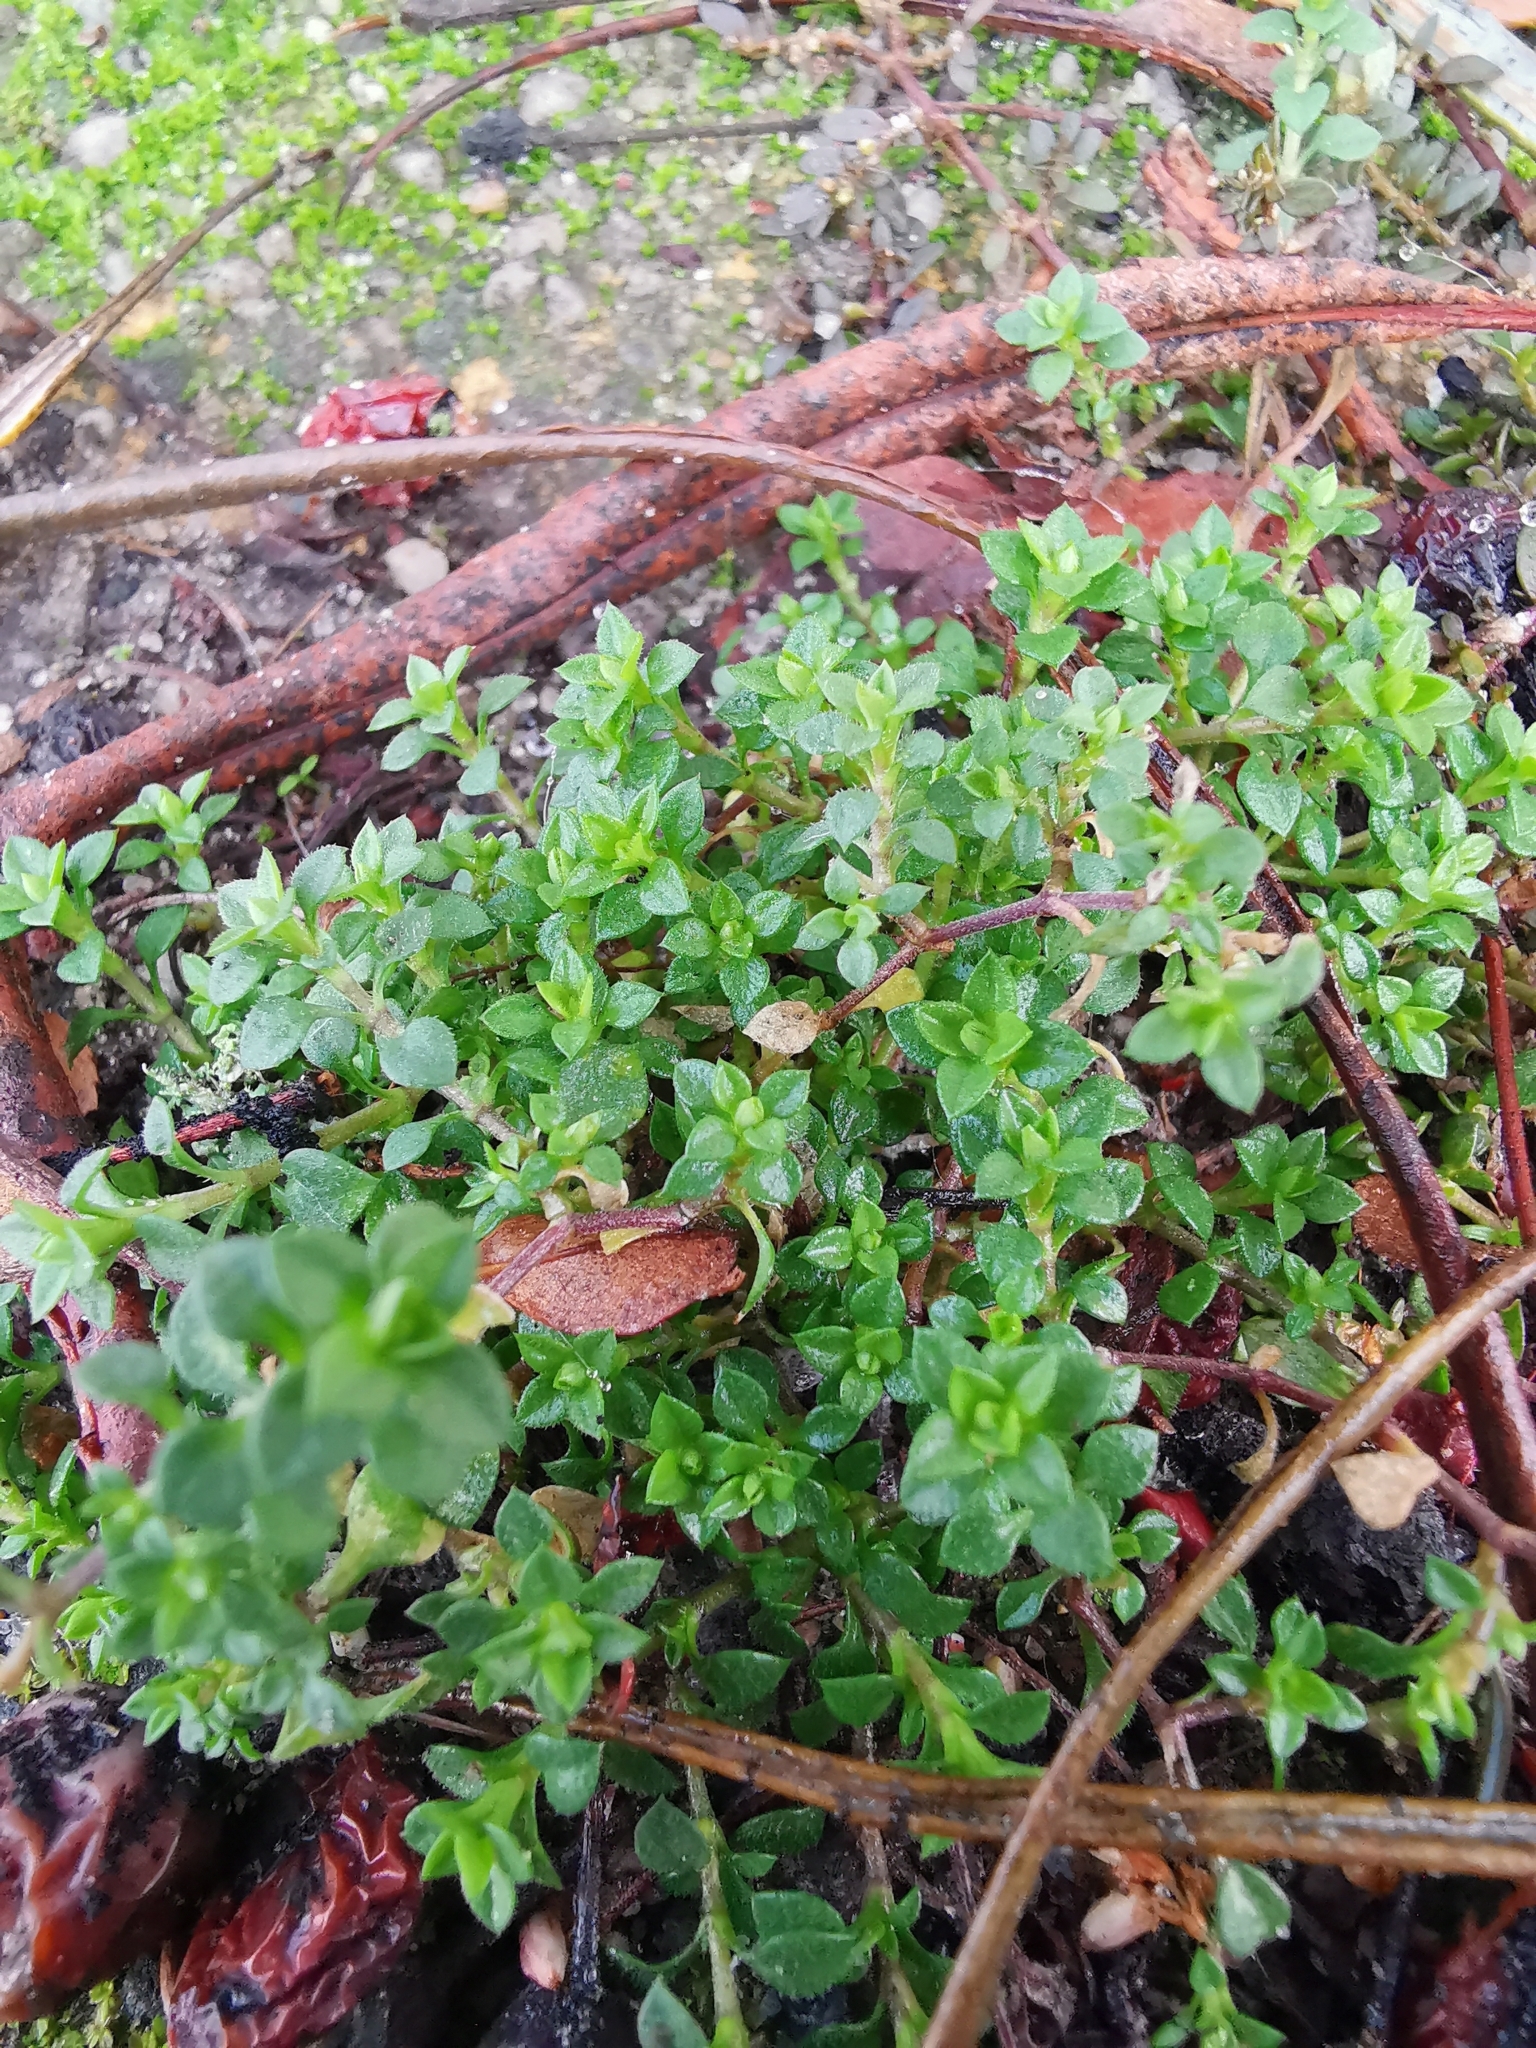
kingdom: Plantae
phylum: Tracheophyta
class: Magnoliopsida
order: Caryophyllales
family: Caryophyllaceae
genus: Arenaria
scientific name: Arenaria serpyllifolia
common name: Thyme-leaved sandwort
